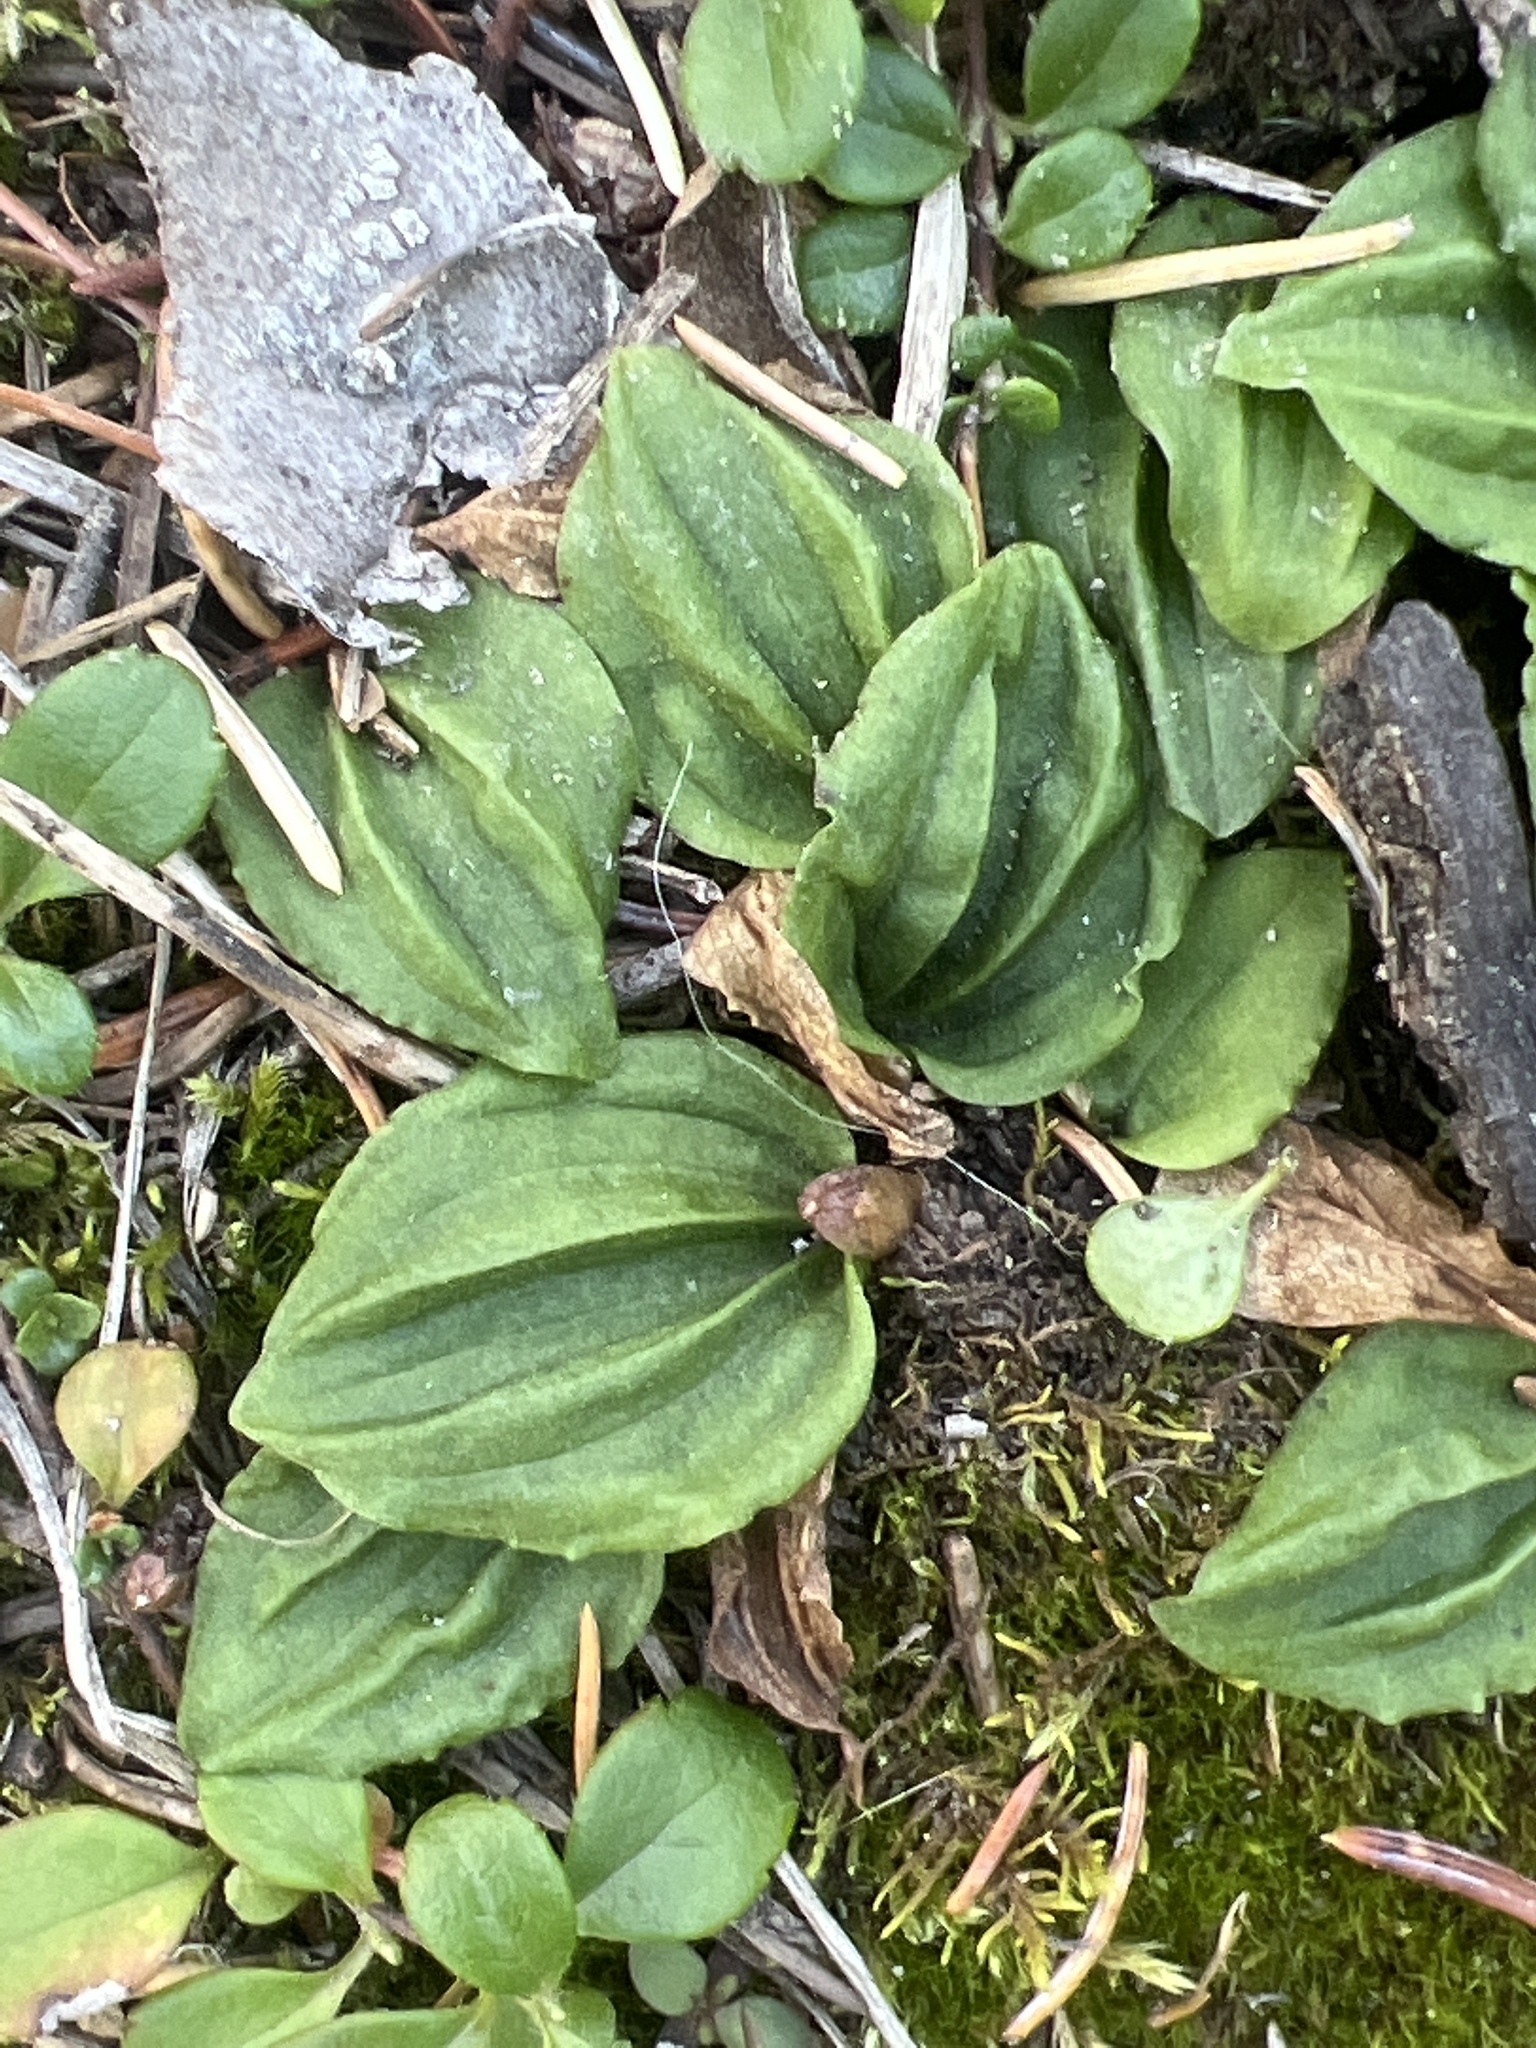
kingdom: Plantae
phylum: Tracheophyta
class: Liliopsida
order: Asparagales
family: Orchidaceae
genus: Calypso
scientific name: Calypso bulbosa
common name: Calypso
